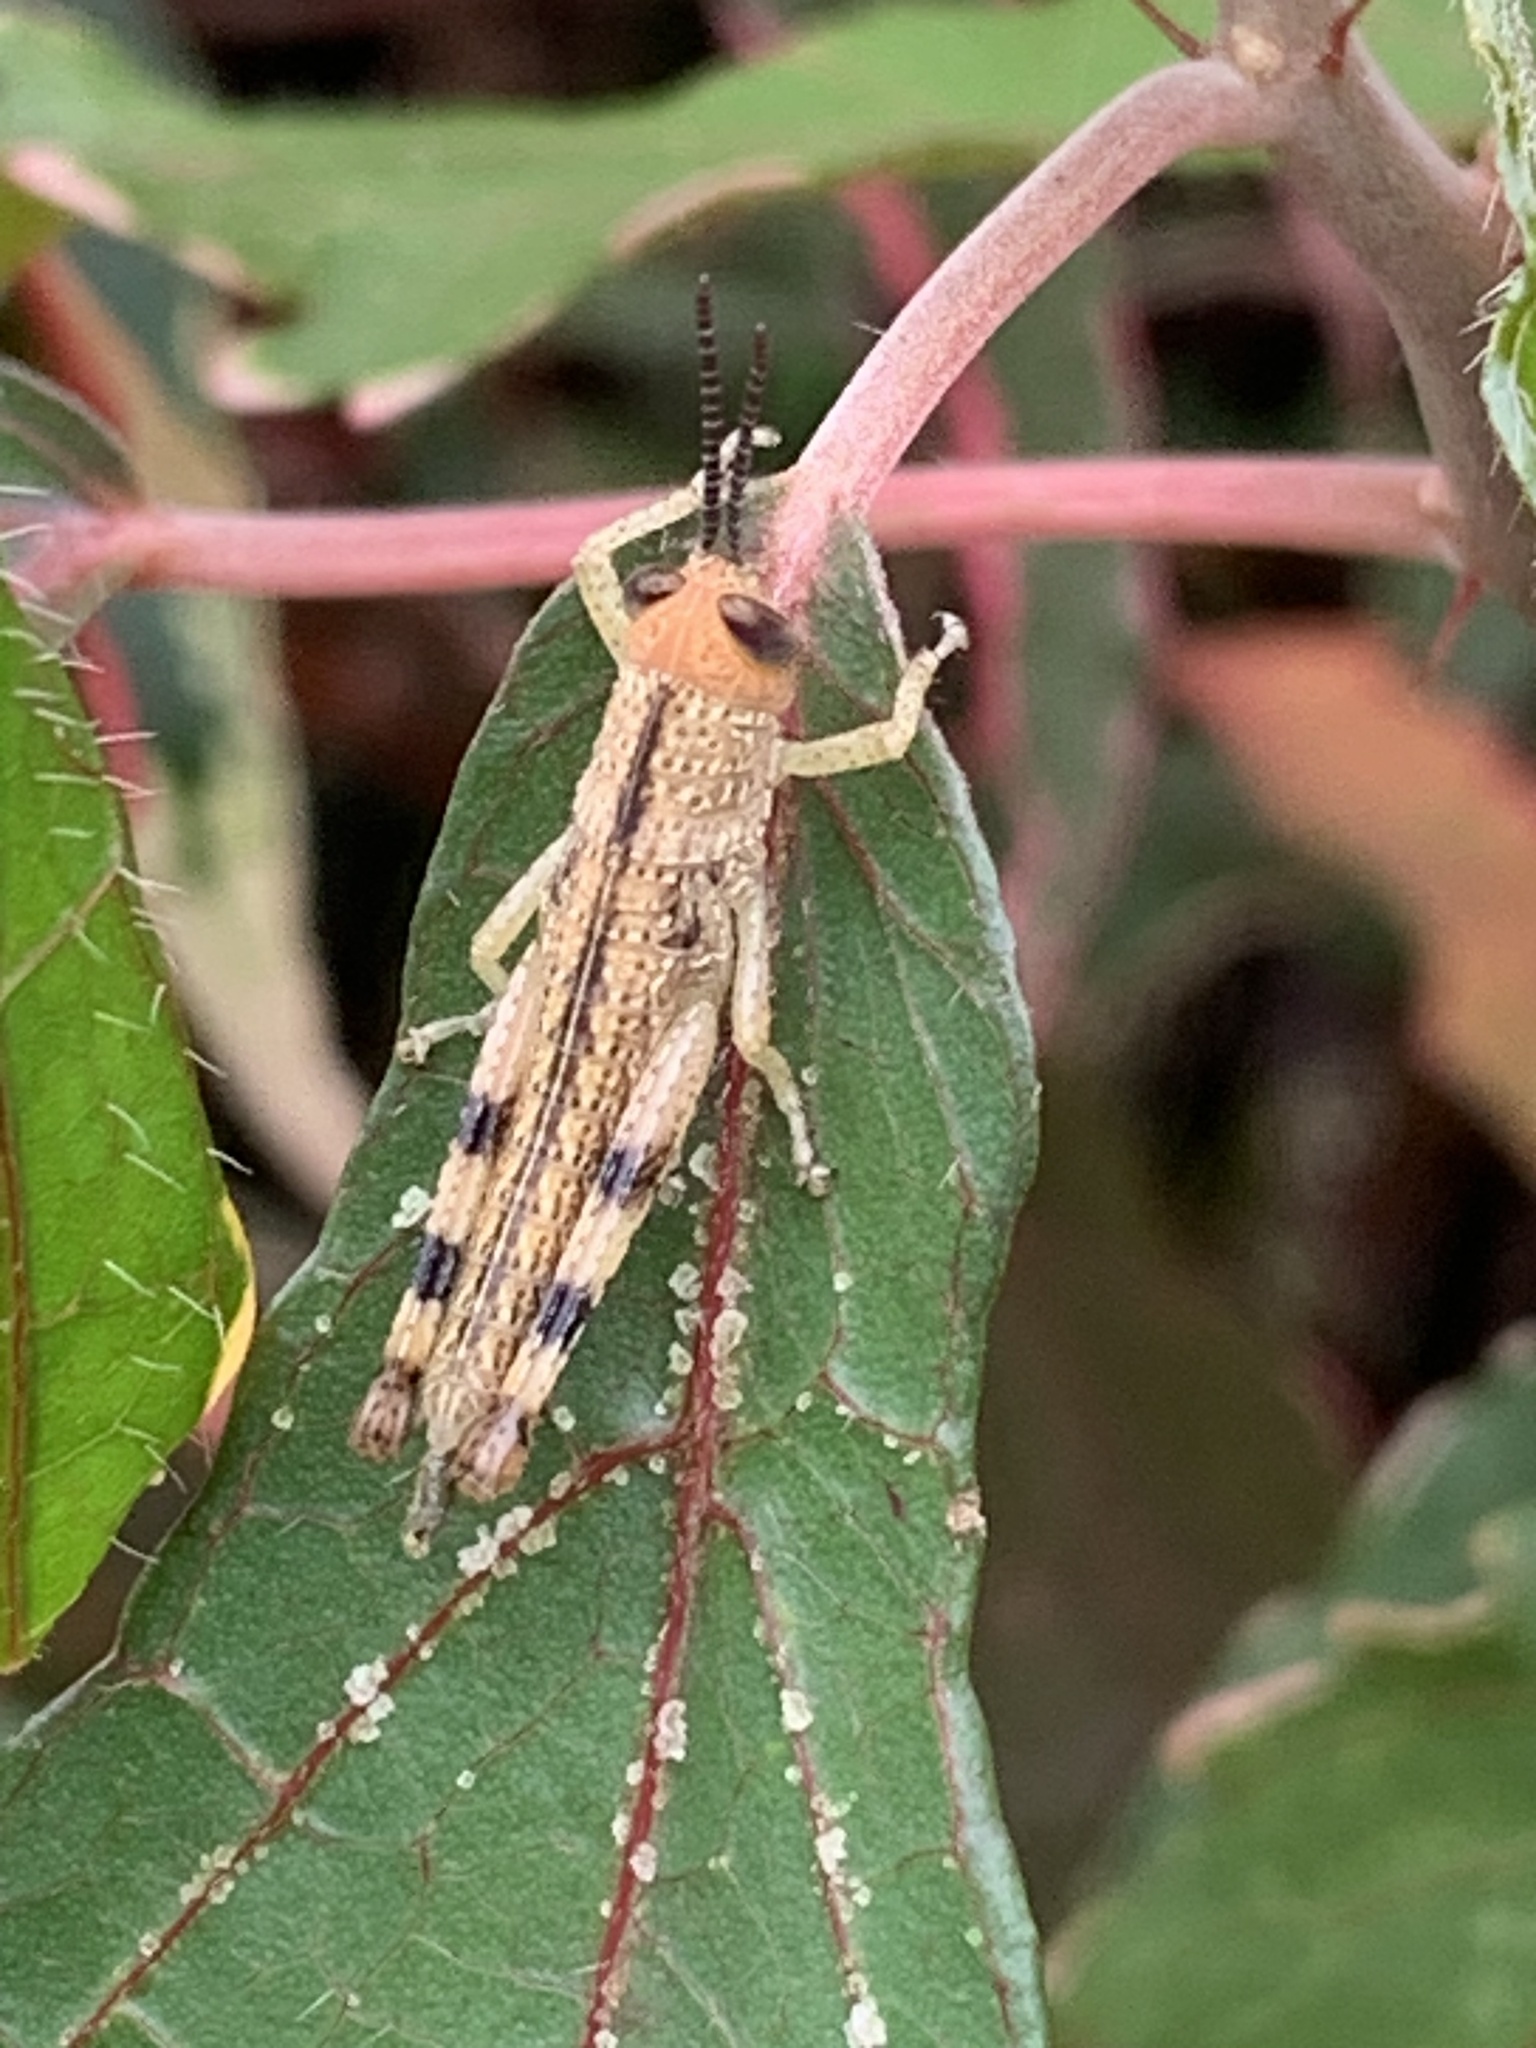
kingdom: Animalia
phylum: Arthropoda
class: Insecta
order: Orthoptera
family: Acrididae
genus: Valanga
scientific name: Valanga irregularis
